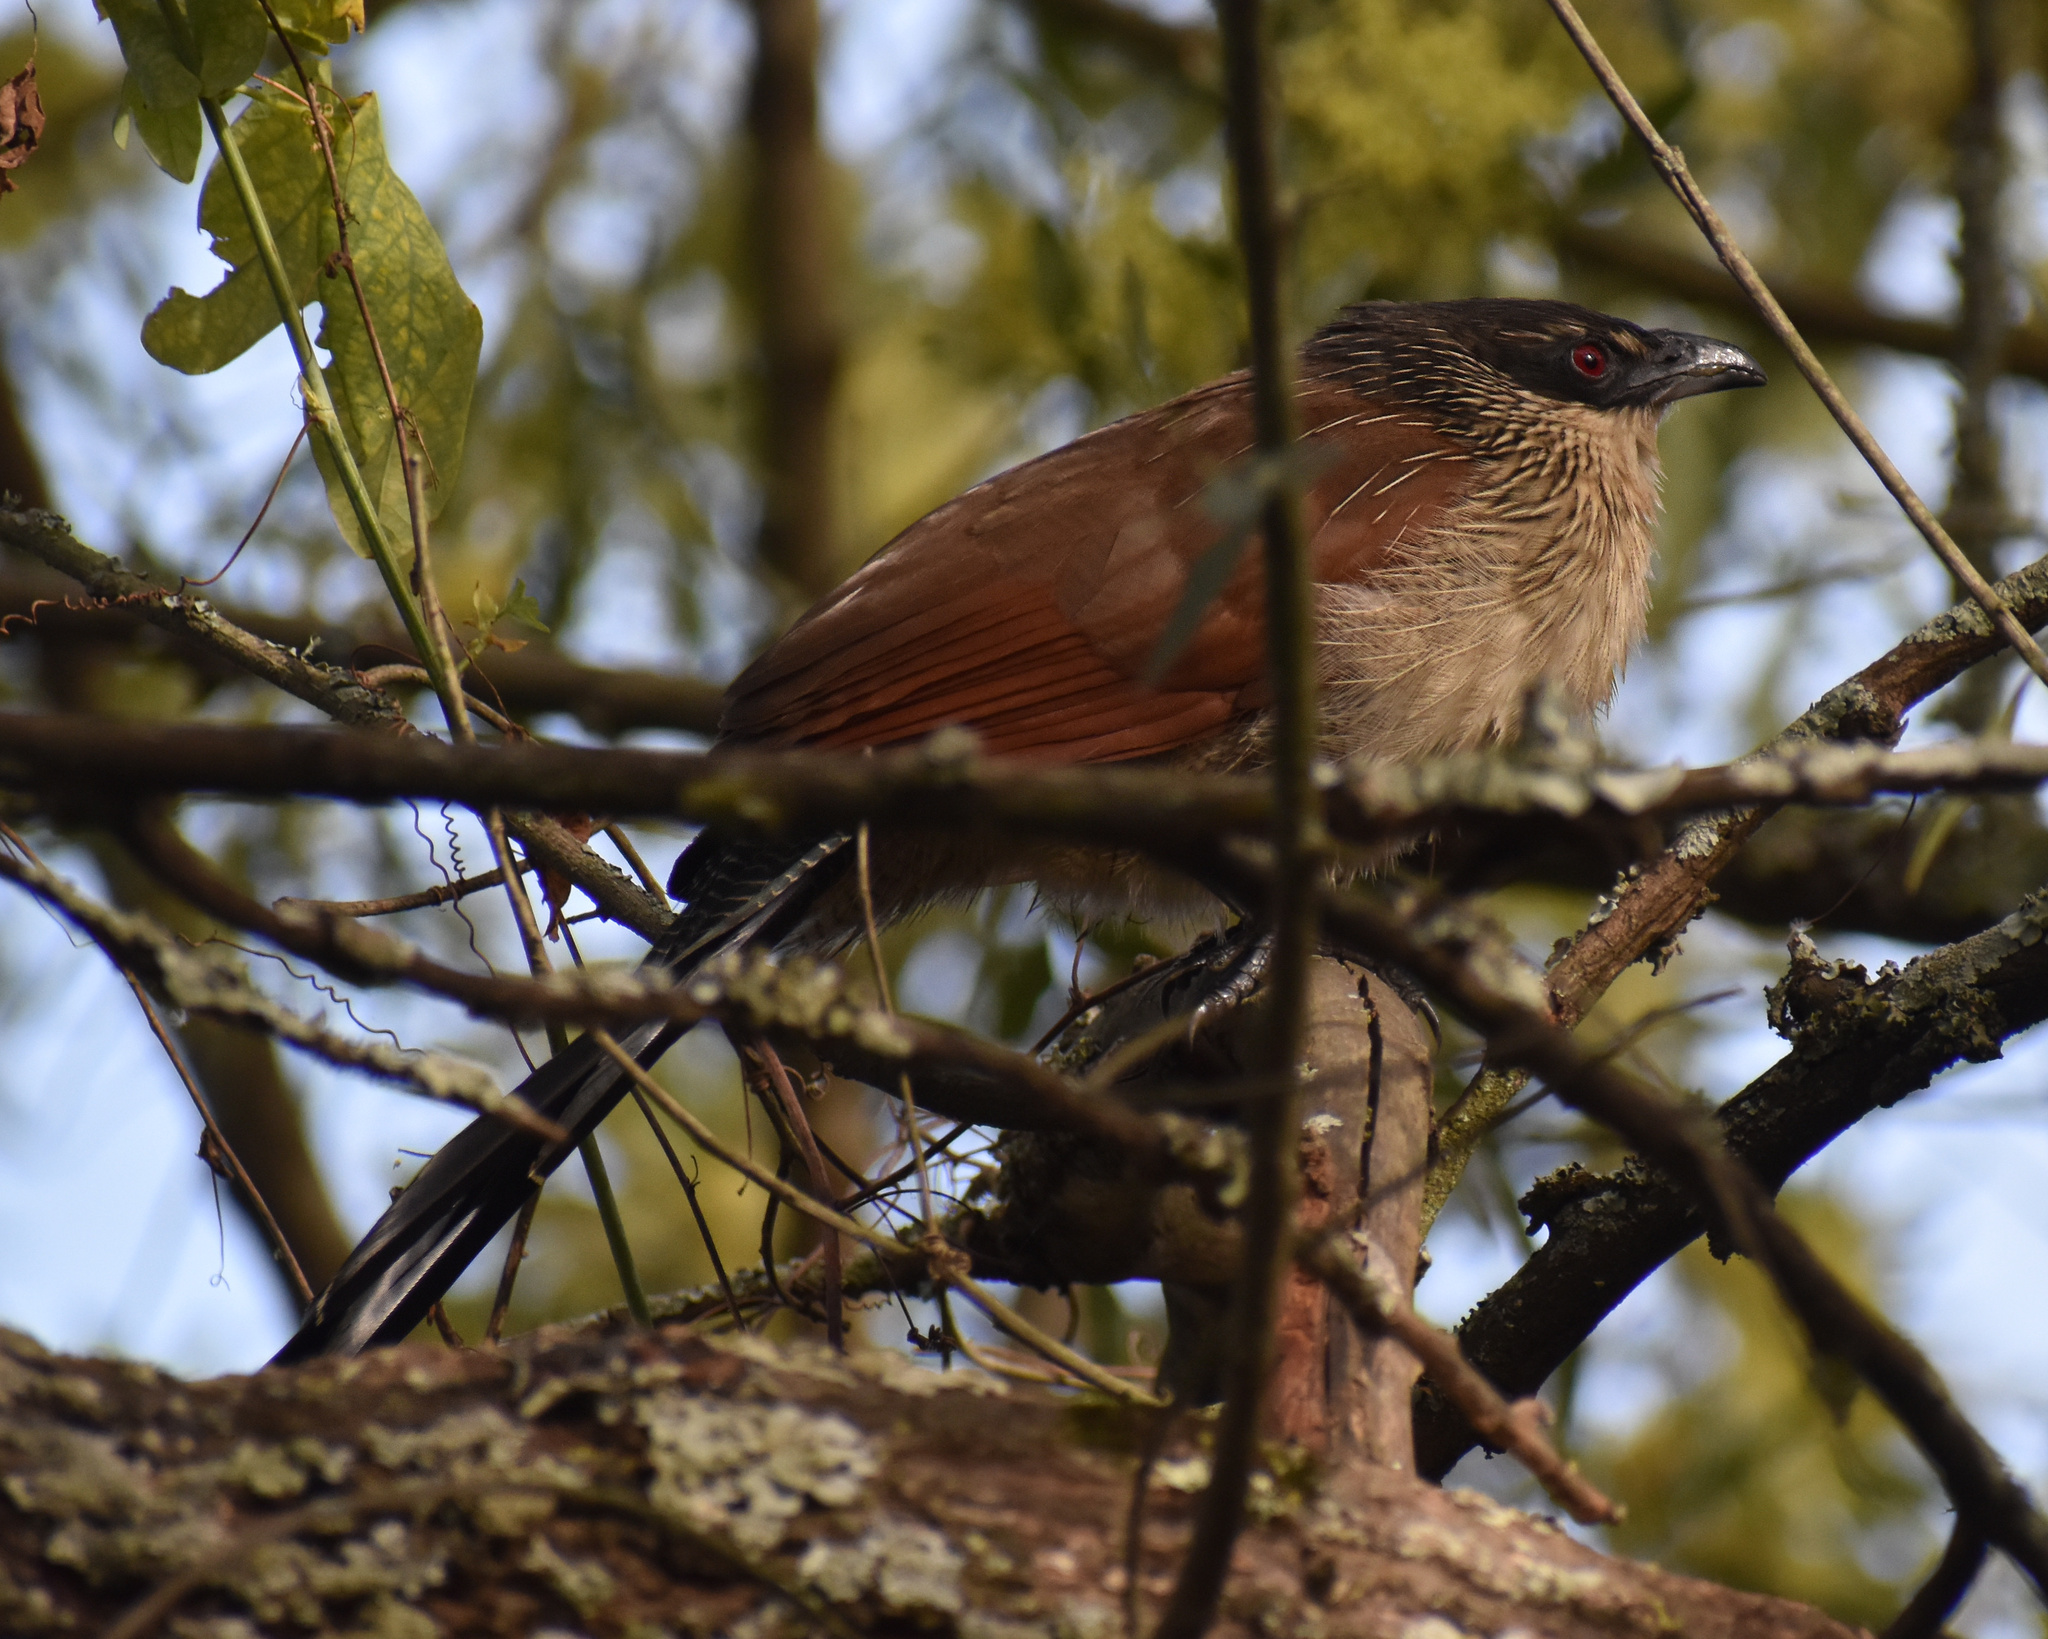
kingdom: Animalia
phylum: Chordata
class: Aves
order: Cuculiformes
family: Cuculidae
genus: Centropus
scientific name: Centropus superciliosus
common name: White-browed coucal
